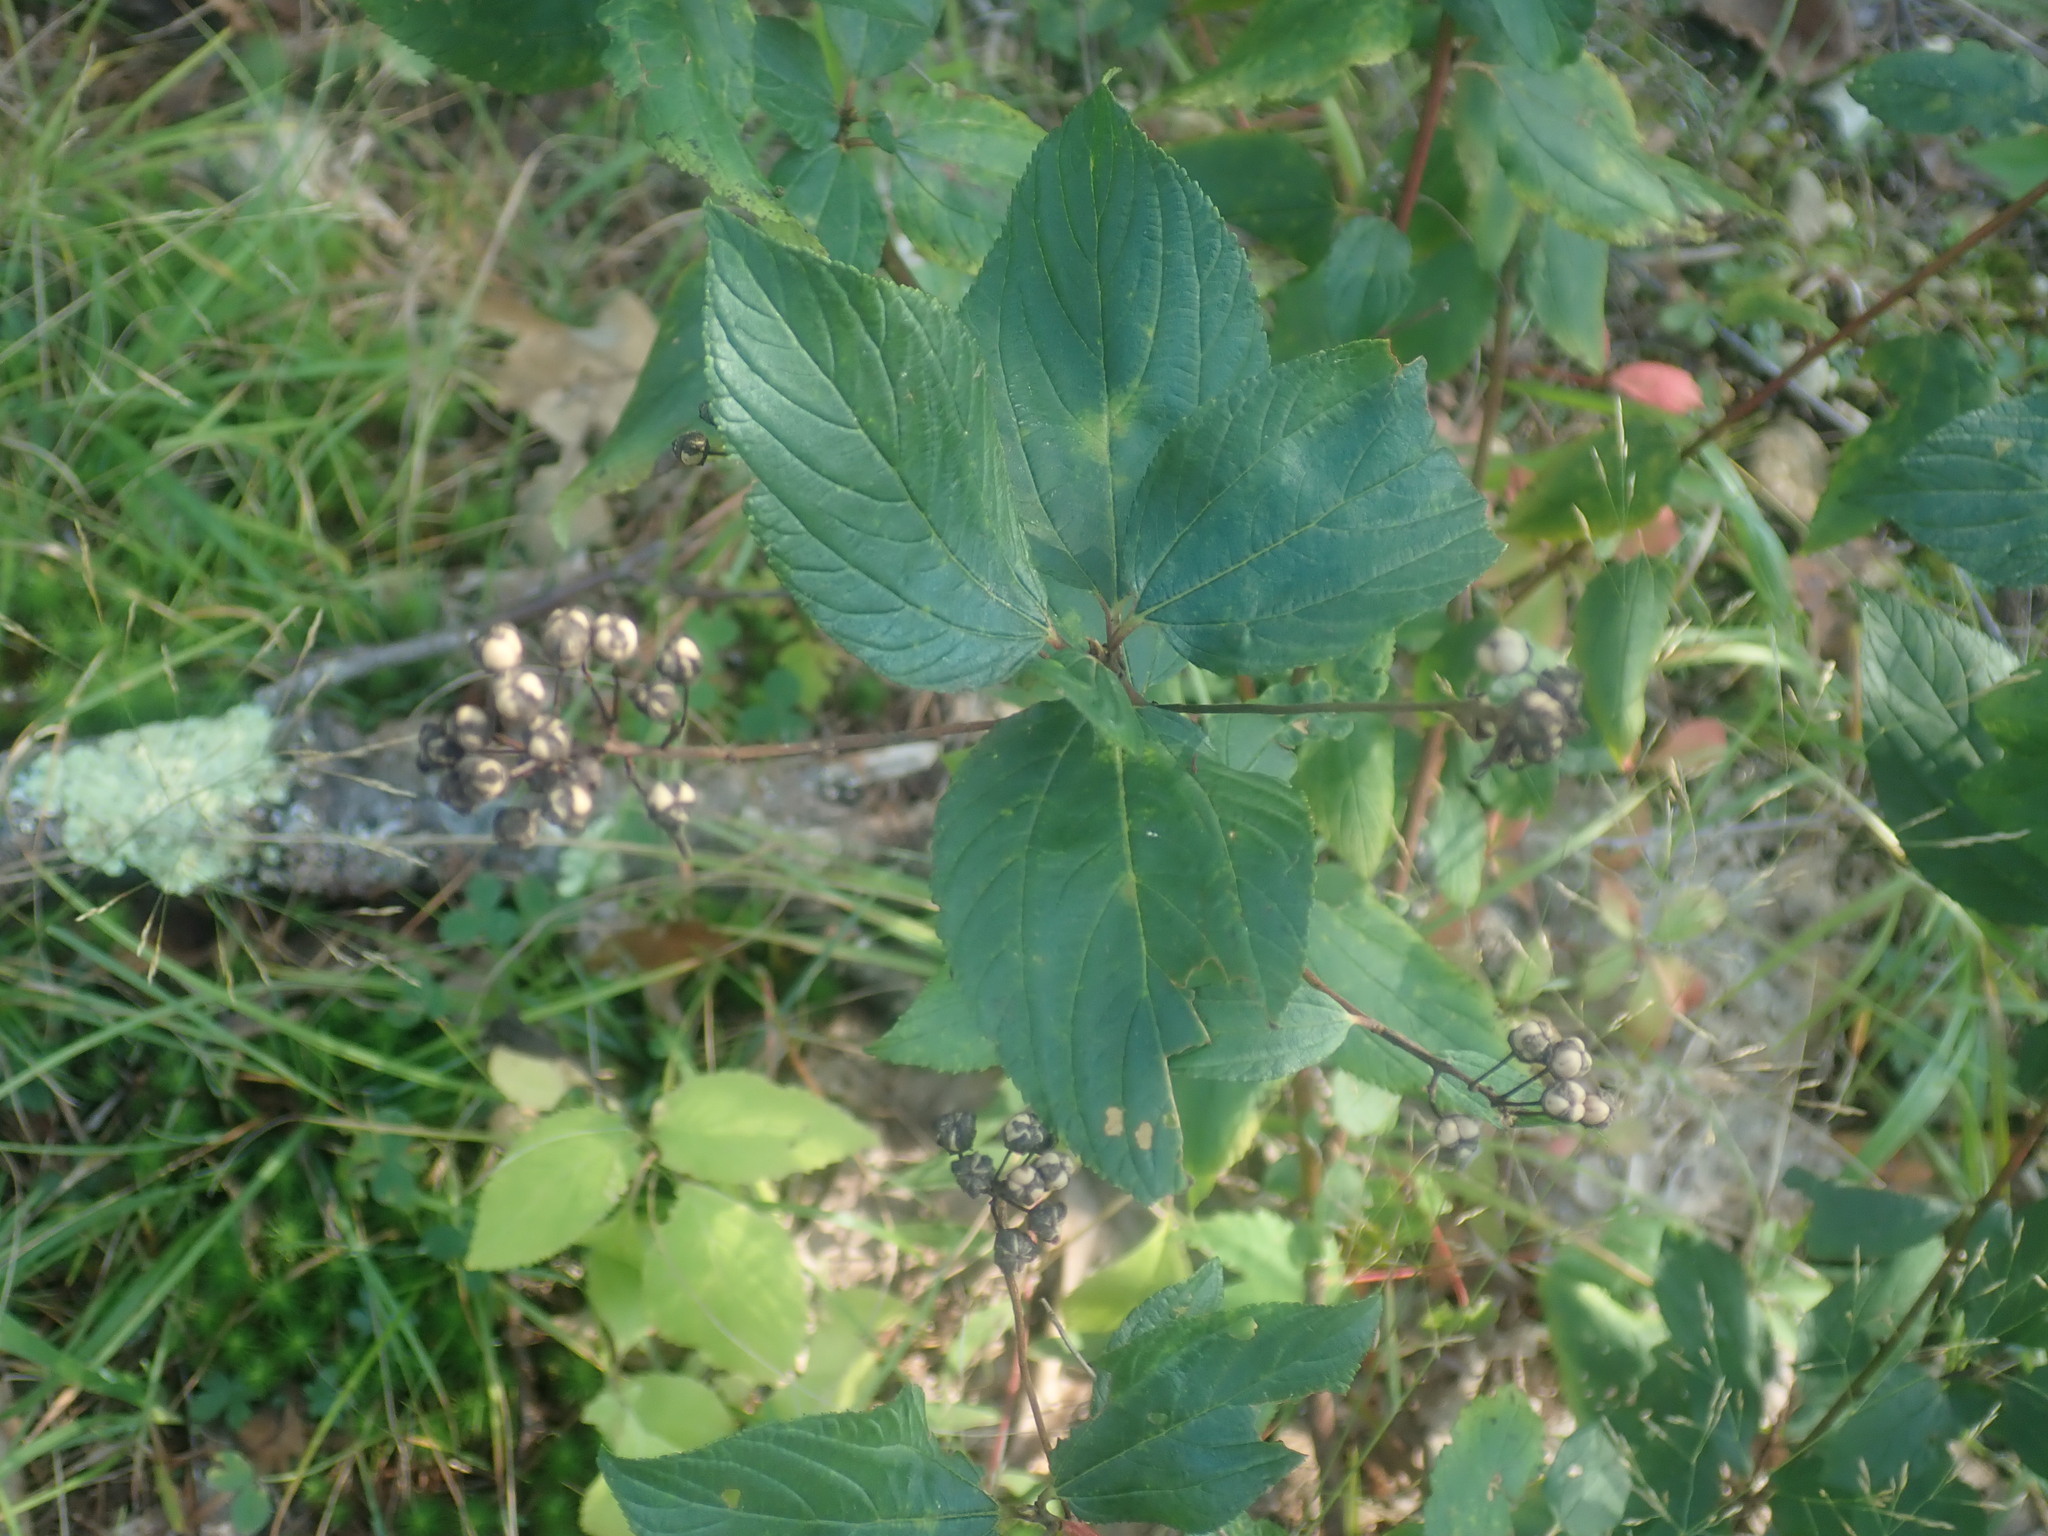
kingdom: Plantae
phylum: Tracheophyta
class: Magnoliopsida
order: Rosales
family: Rhamnaceae
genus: Ceanothus
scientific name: Ceanothus americanus
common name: Redroot
